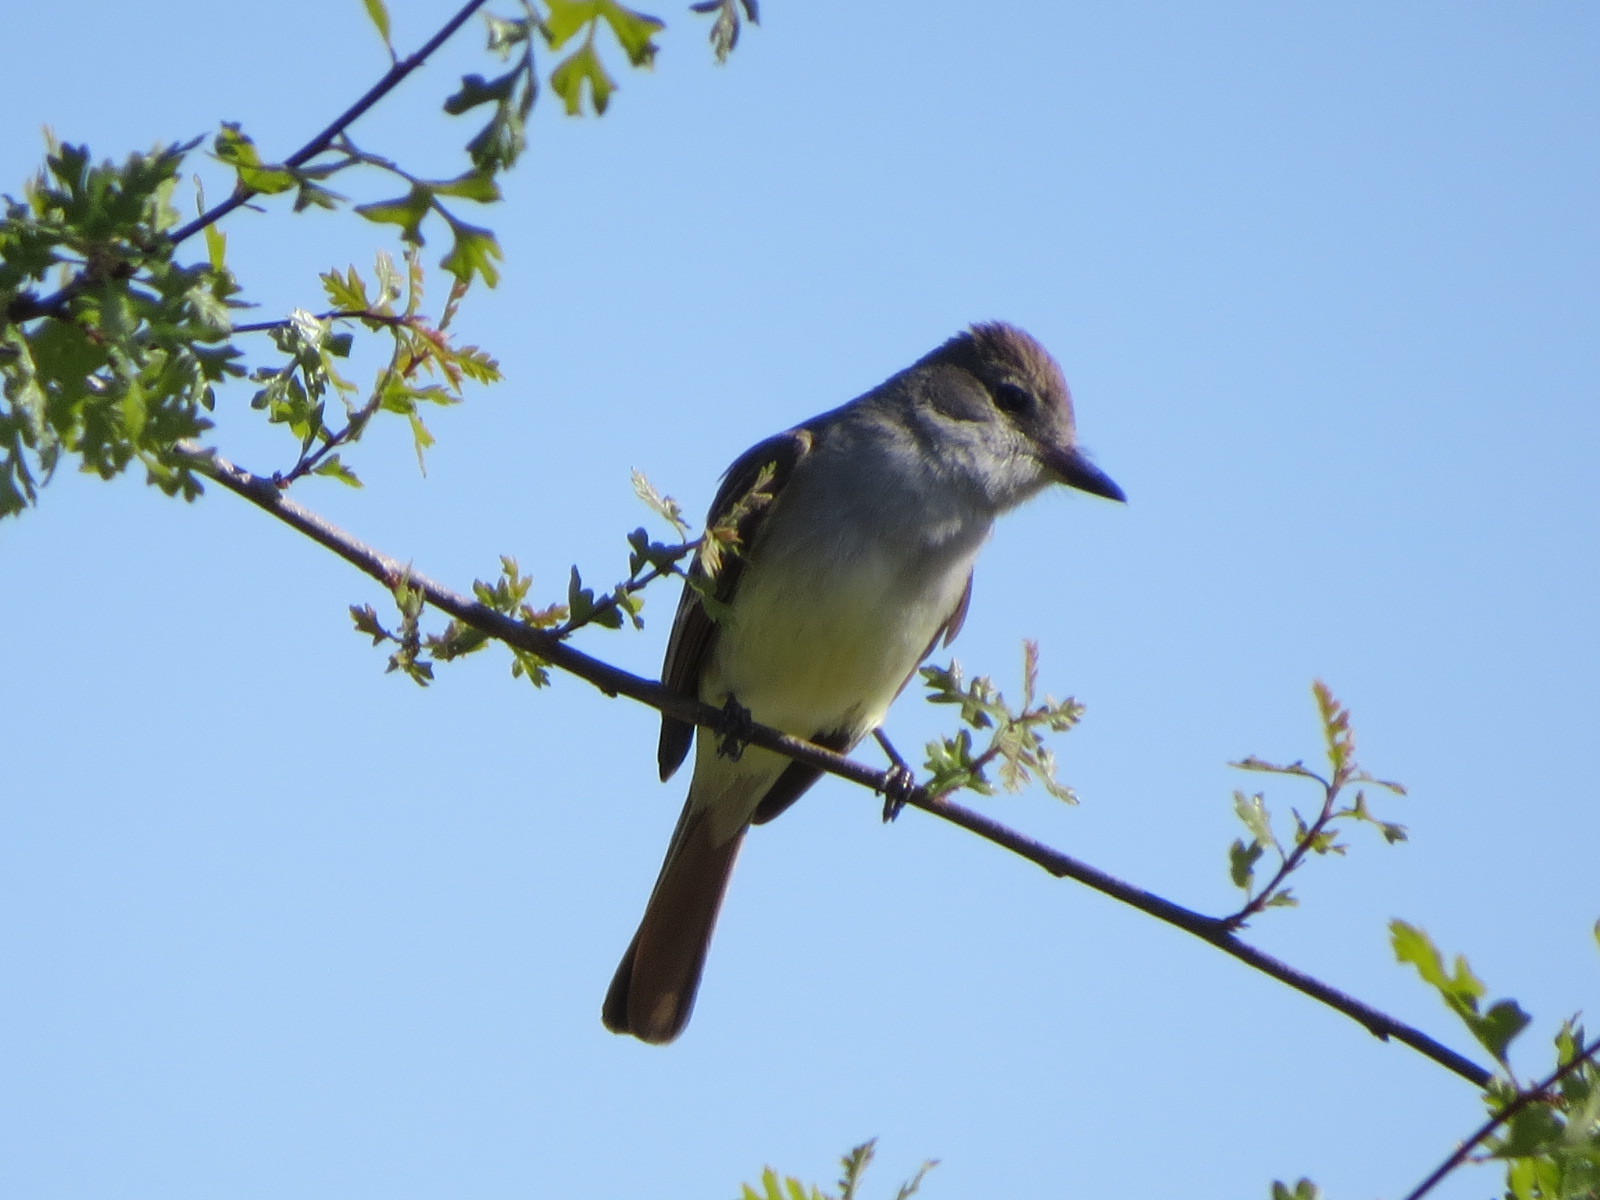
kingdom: Animalia
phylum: Chordata
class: Aves
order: Passeriformes
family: Tyrannidae
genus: Myiarchus
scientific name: Myiarchus cinerascens
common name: Ash-throated flycatcher
